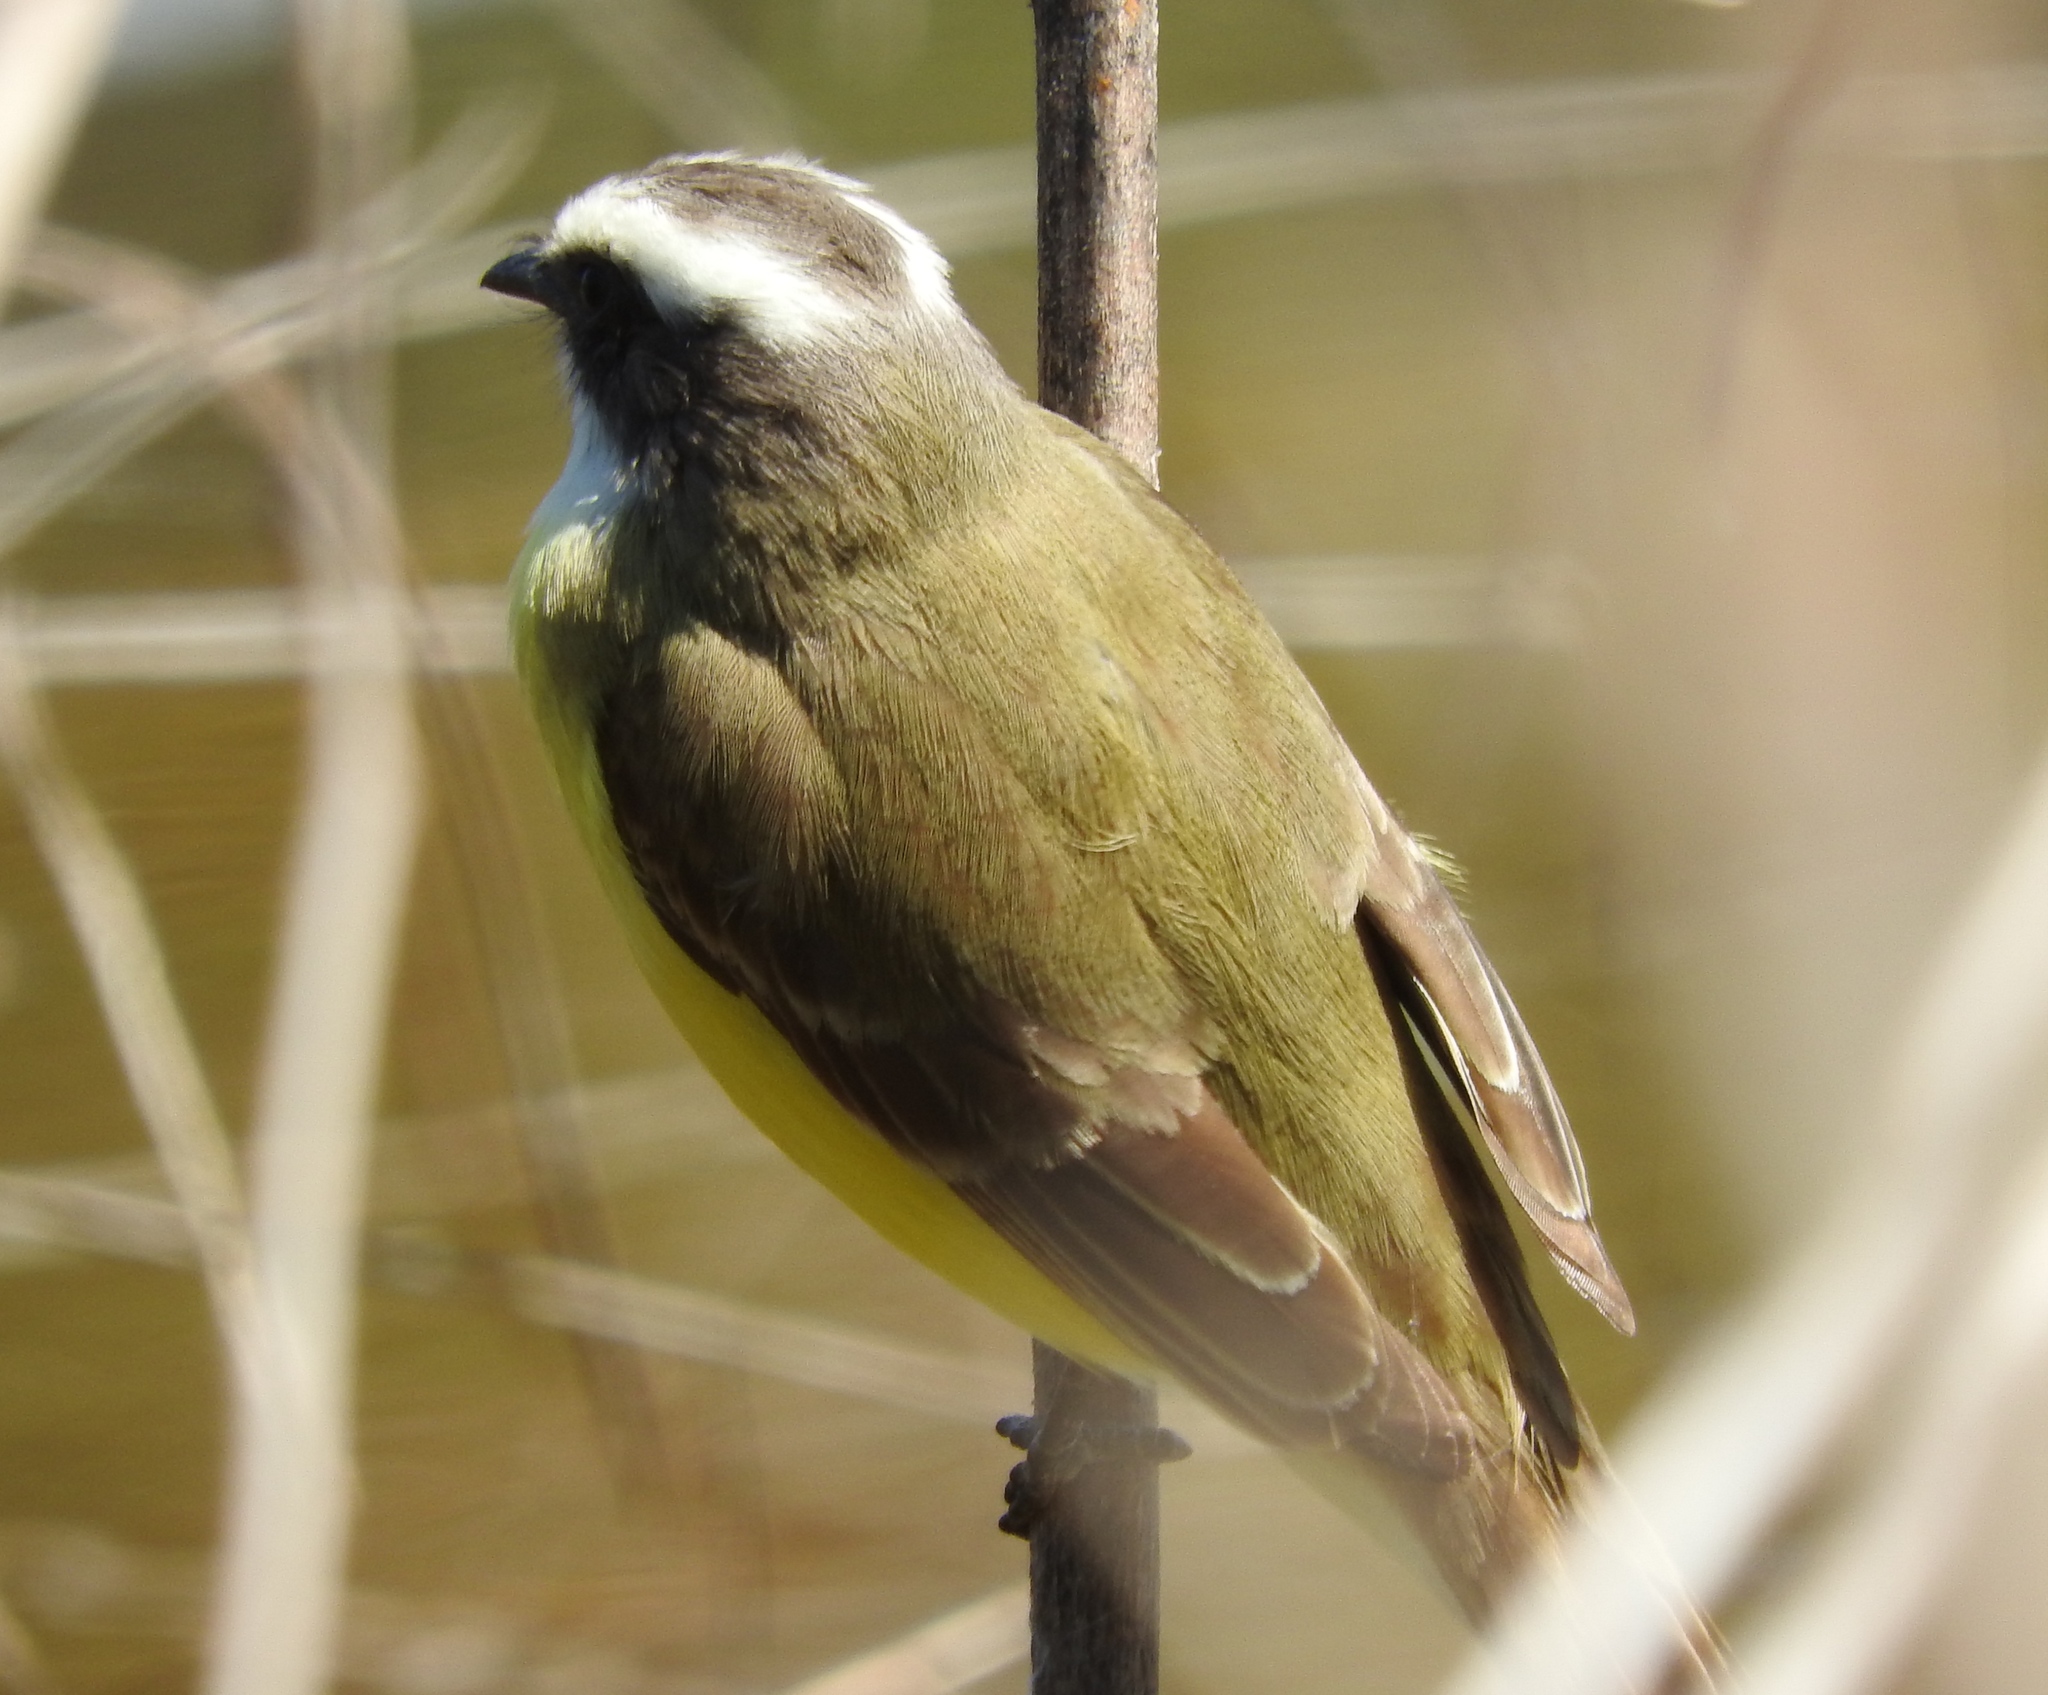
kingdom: Animalia
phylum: Chordata
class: Aves
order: Passeriformes
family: Tyrannidae
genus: Myiozetetes
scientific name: Myiozetetes similis
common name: Social flycatcher
